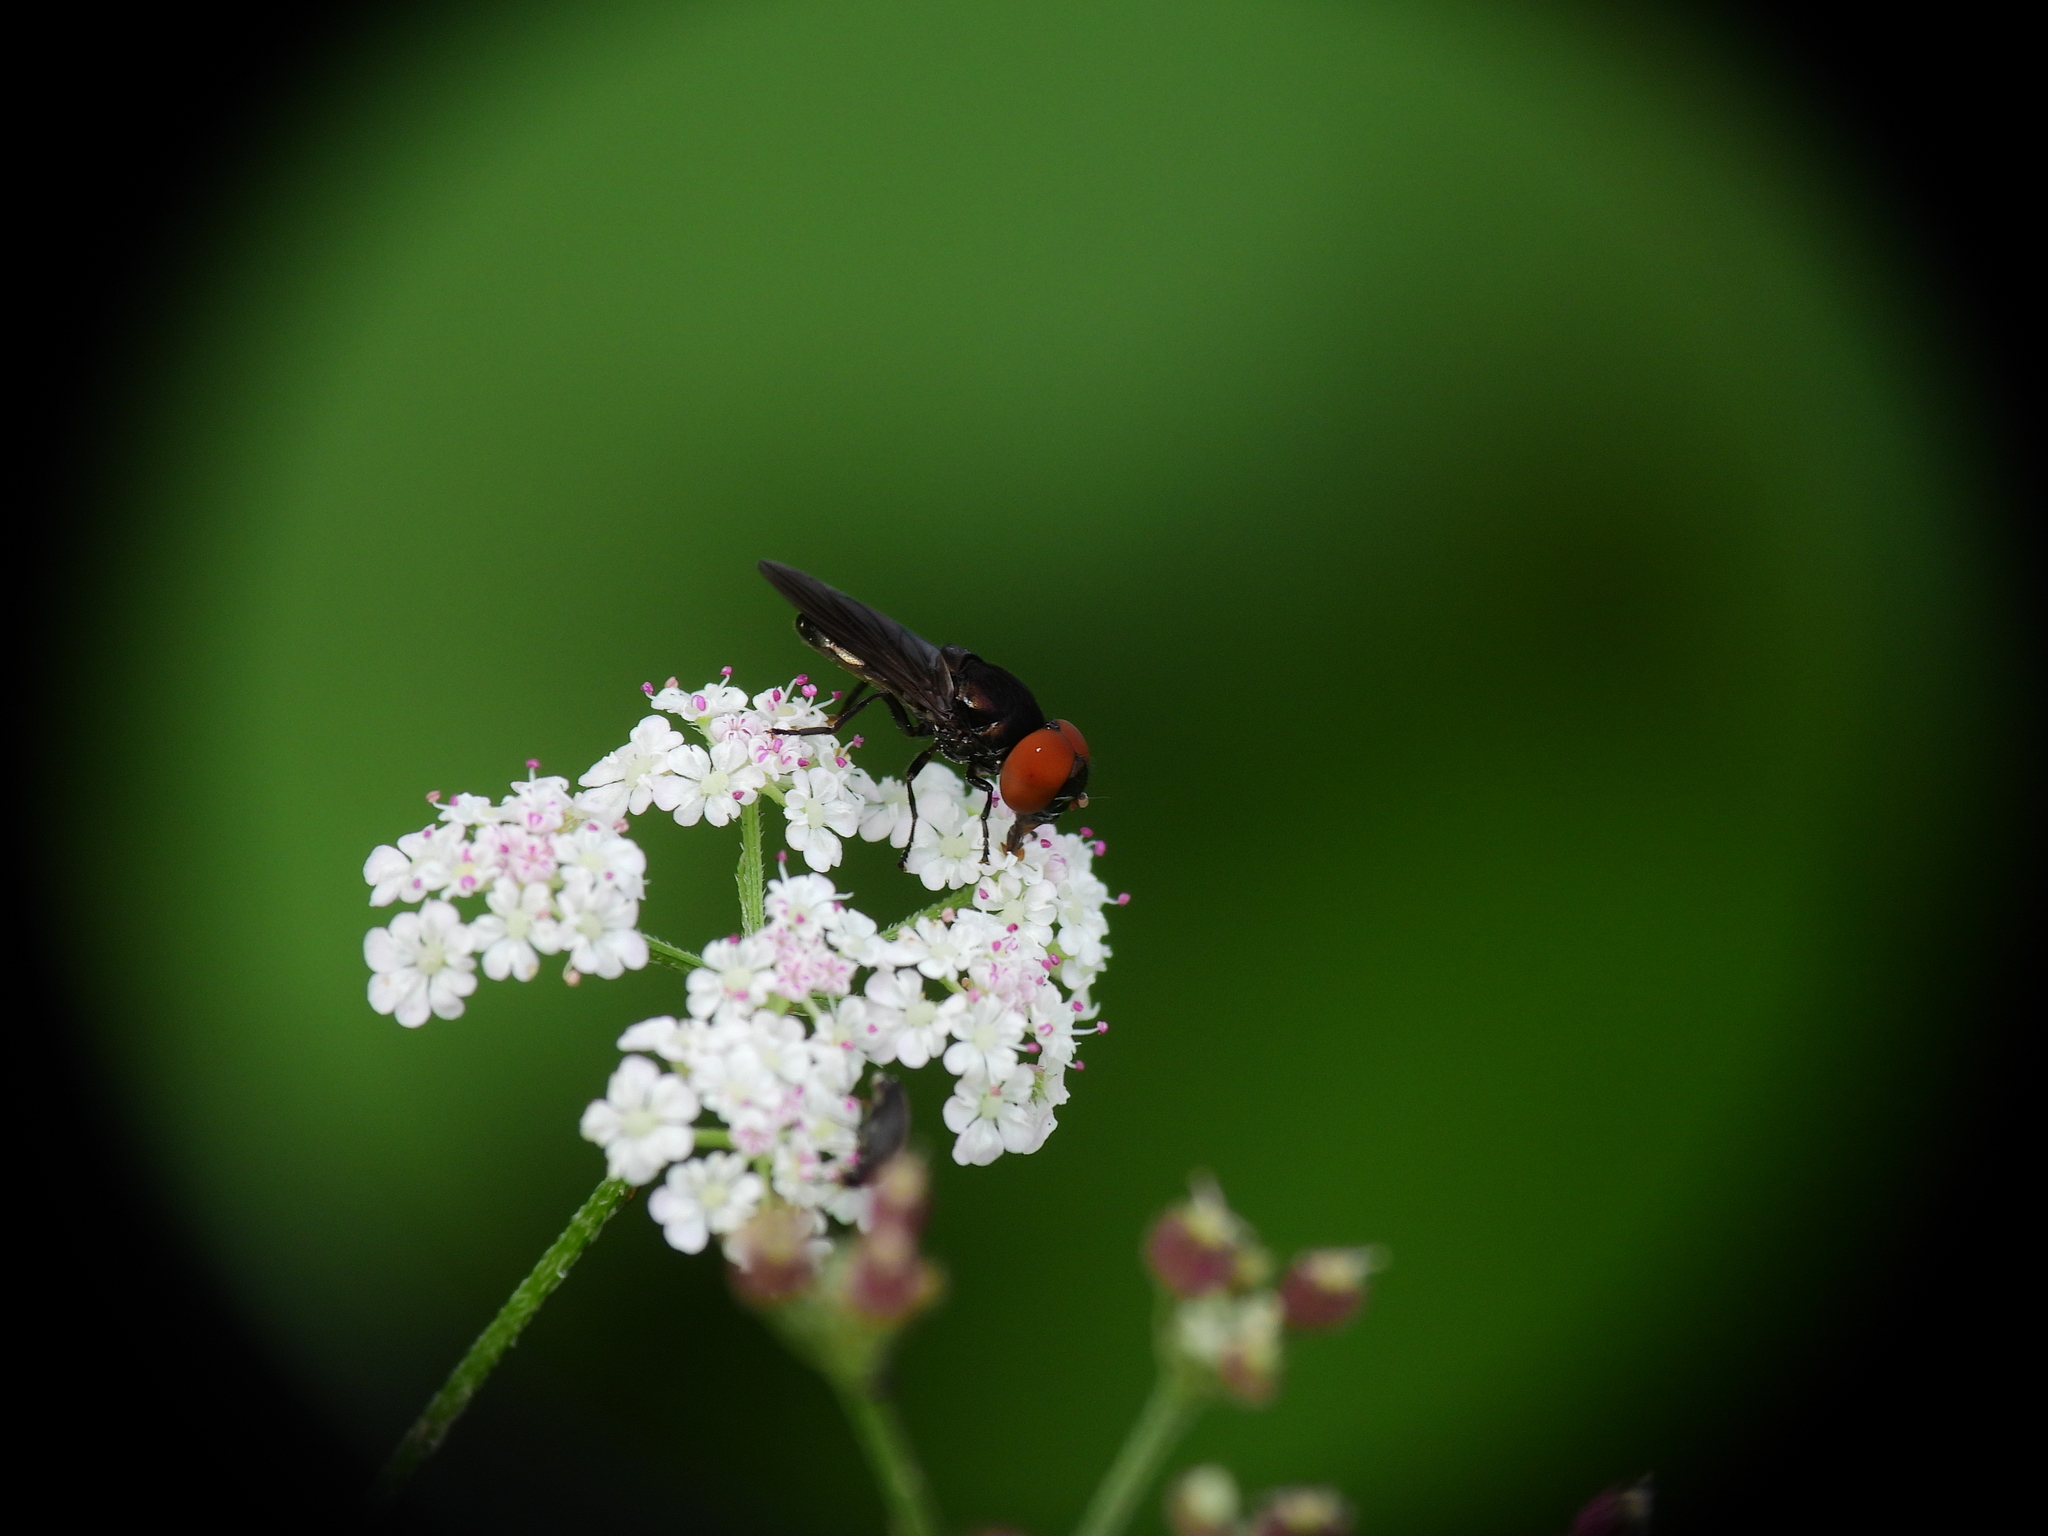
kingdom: Animalia
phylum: Arthropoda
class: Insecta
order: Diptera
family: Syrphidae
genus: Chrysogaster
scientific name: Chrysogaster solstitialis
